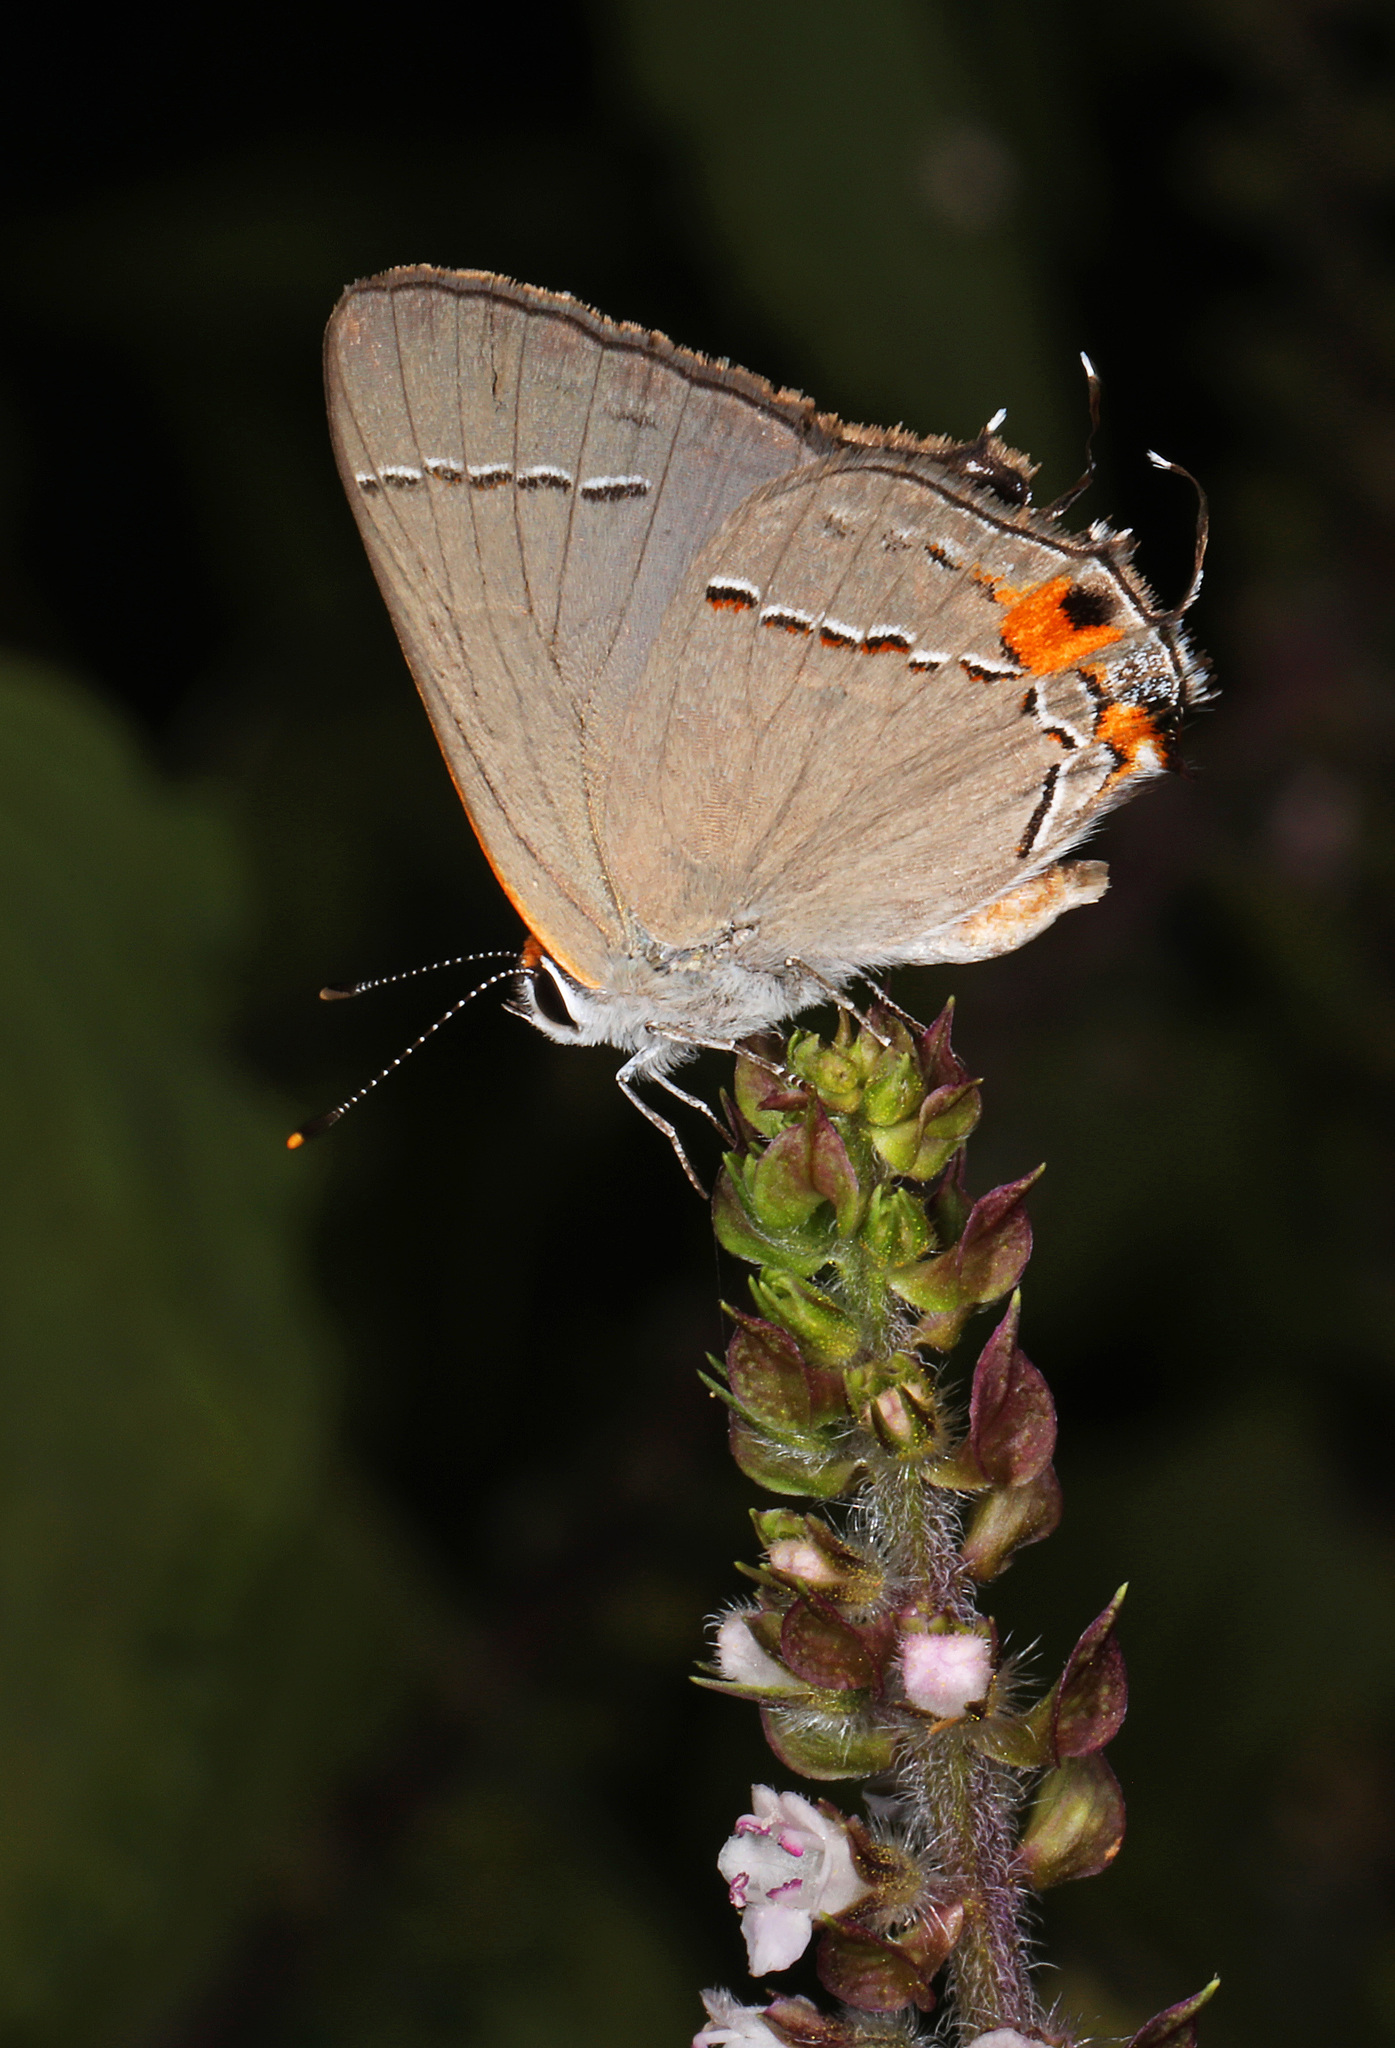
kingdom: Animalia
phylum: Arthropoda
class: Insecta
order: Lepidoptera
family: Lycaenidae
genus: Strymon
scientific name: Strymon melinus
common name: Gray hairstreak
